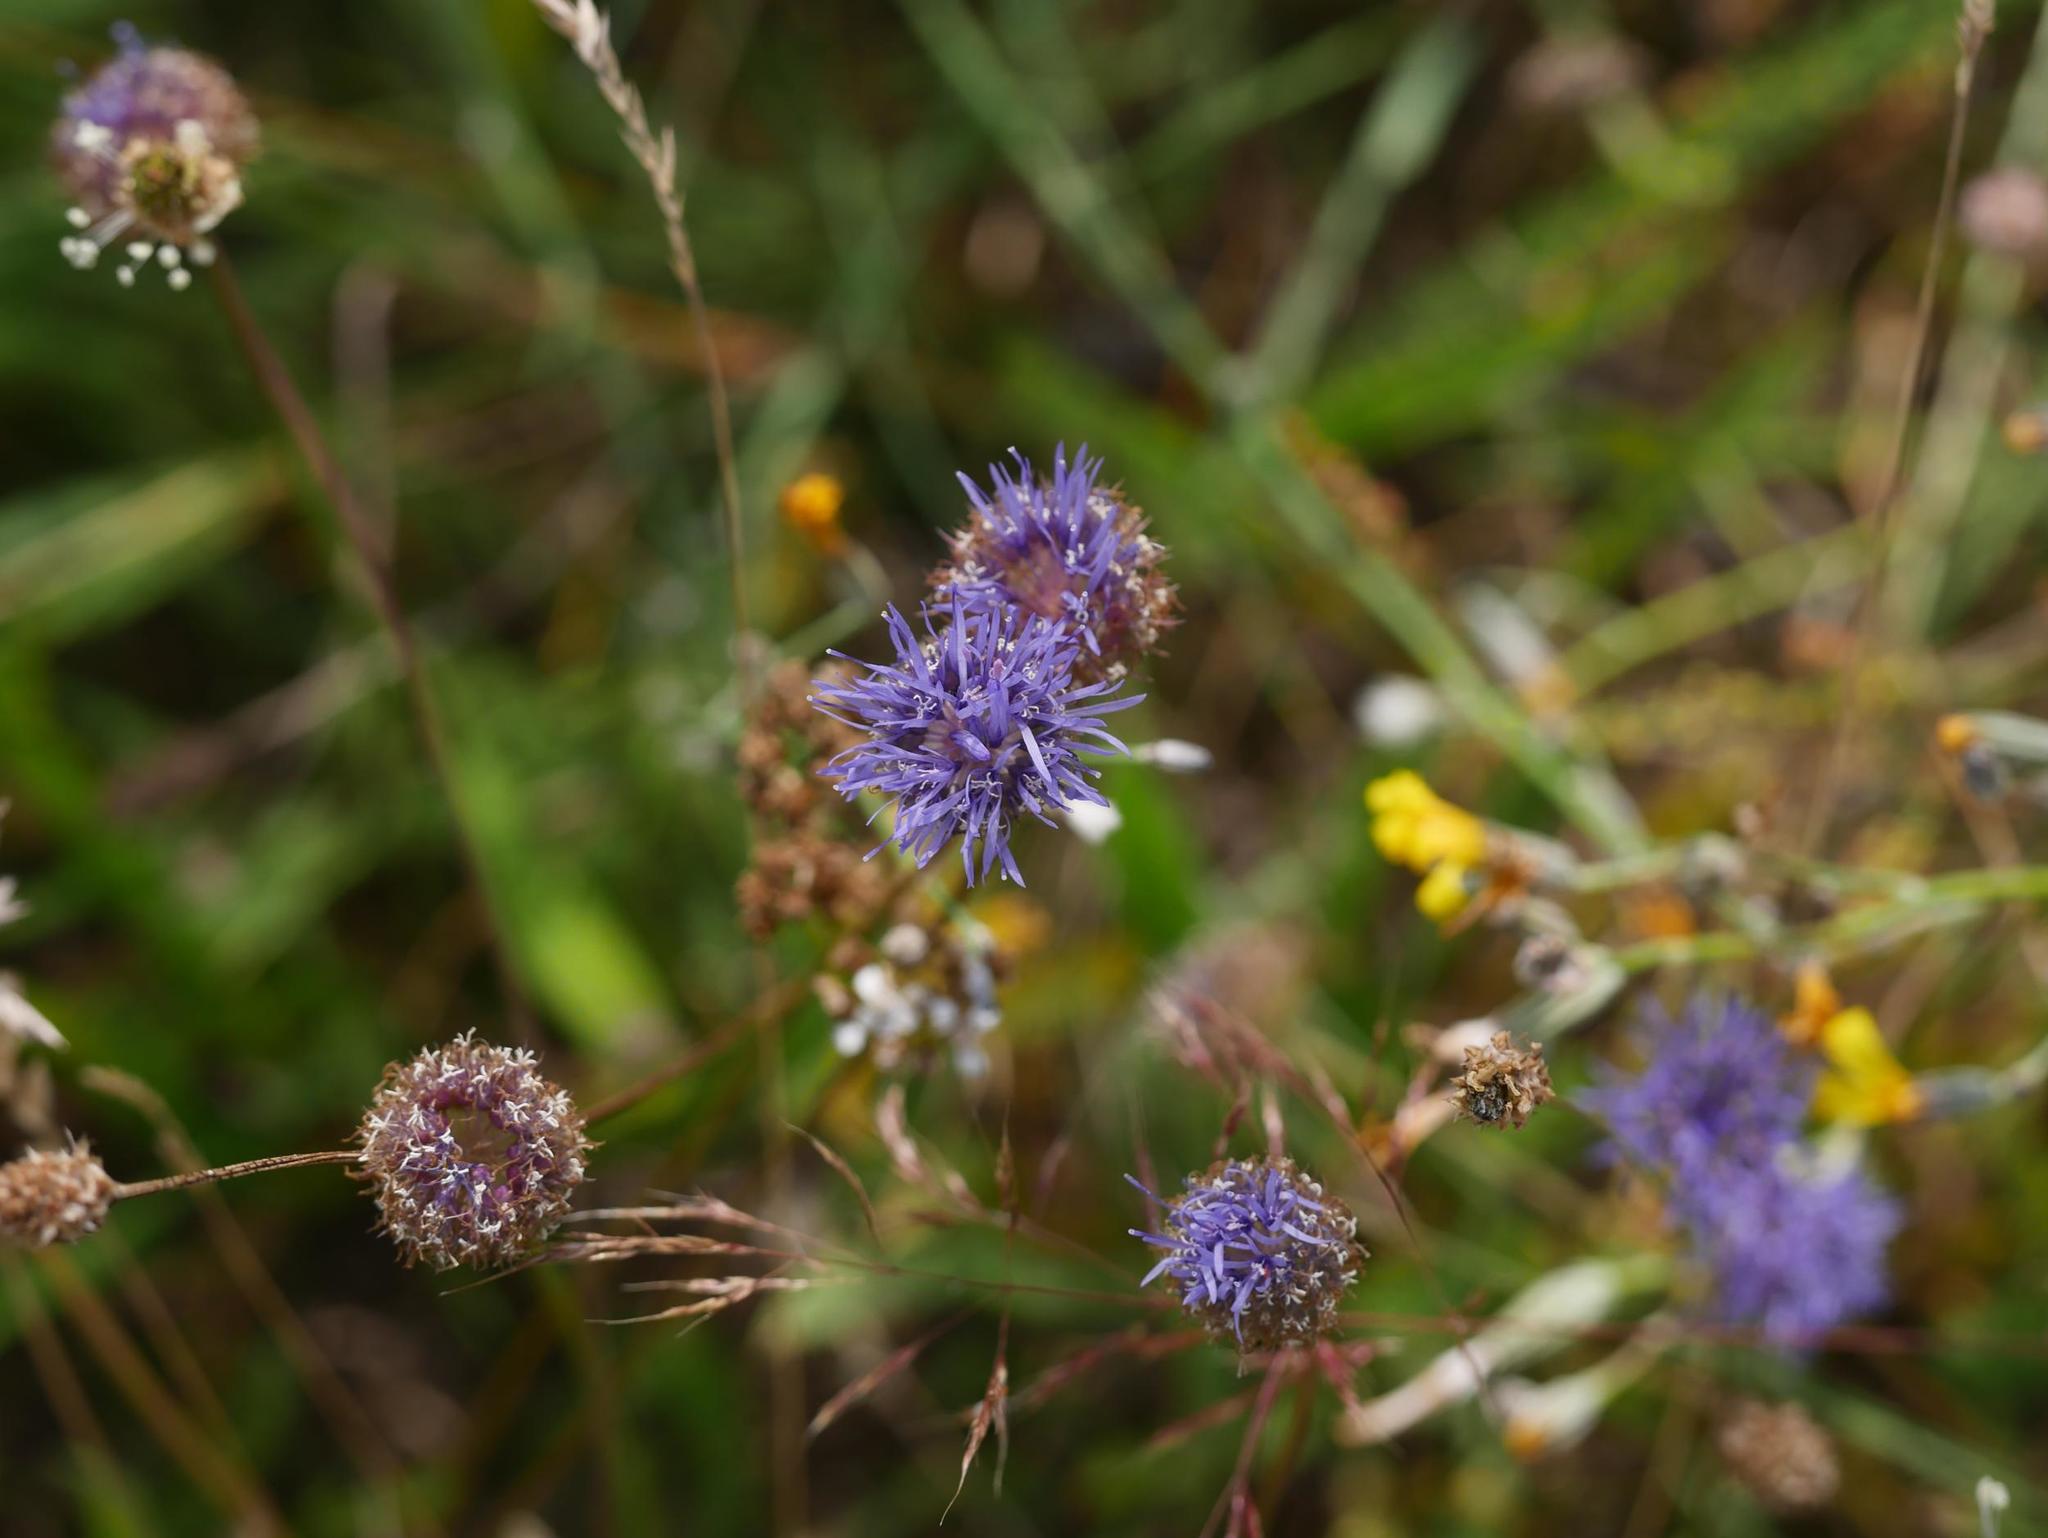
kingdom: Plantae
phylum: Tracheophyta
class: Magnoliopsida
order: Asterales
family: Campanulaceae
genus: Jasione
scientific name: Jasione montana
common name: Sheep's-bit
